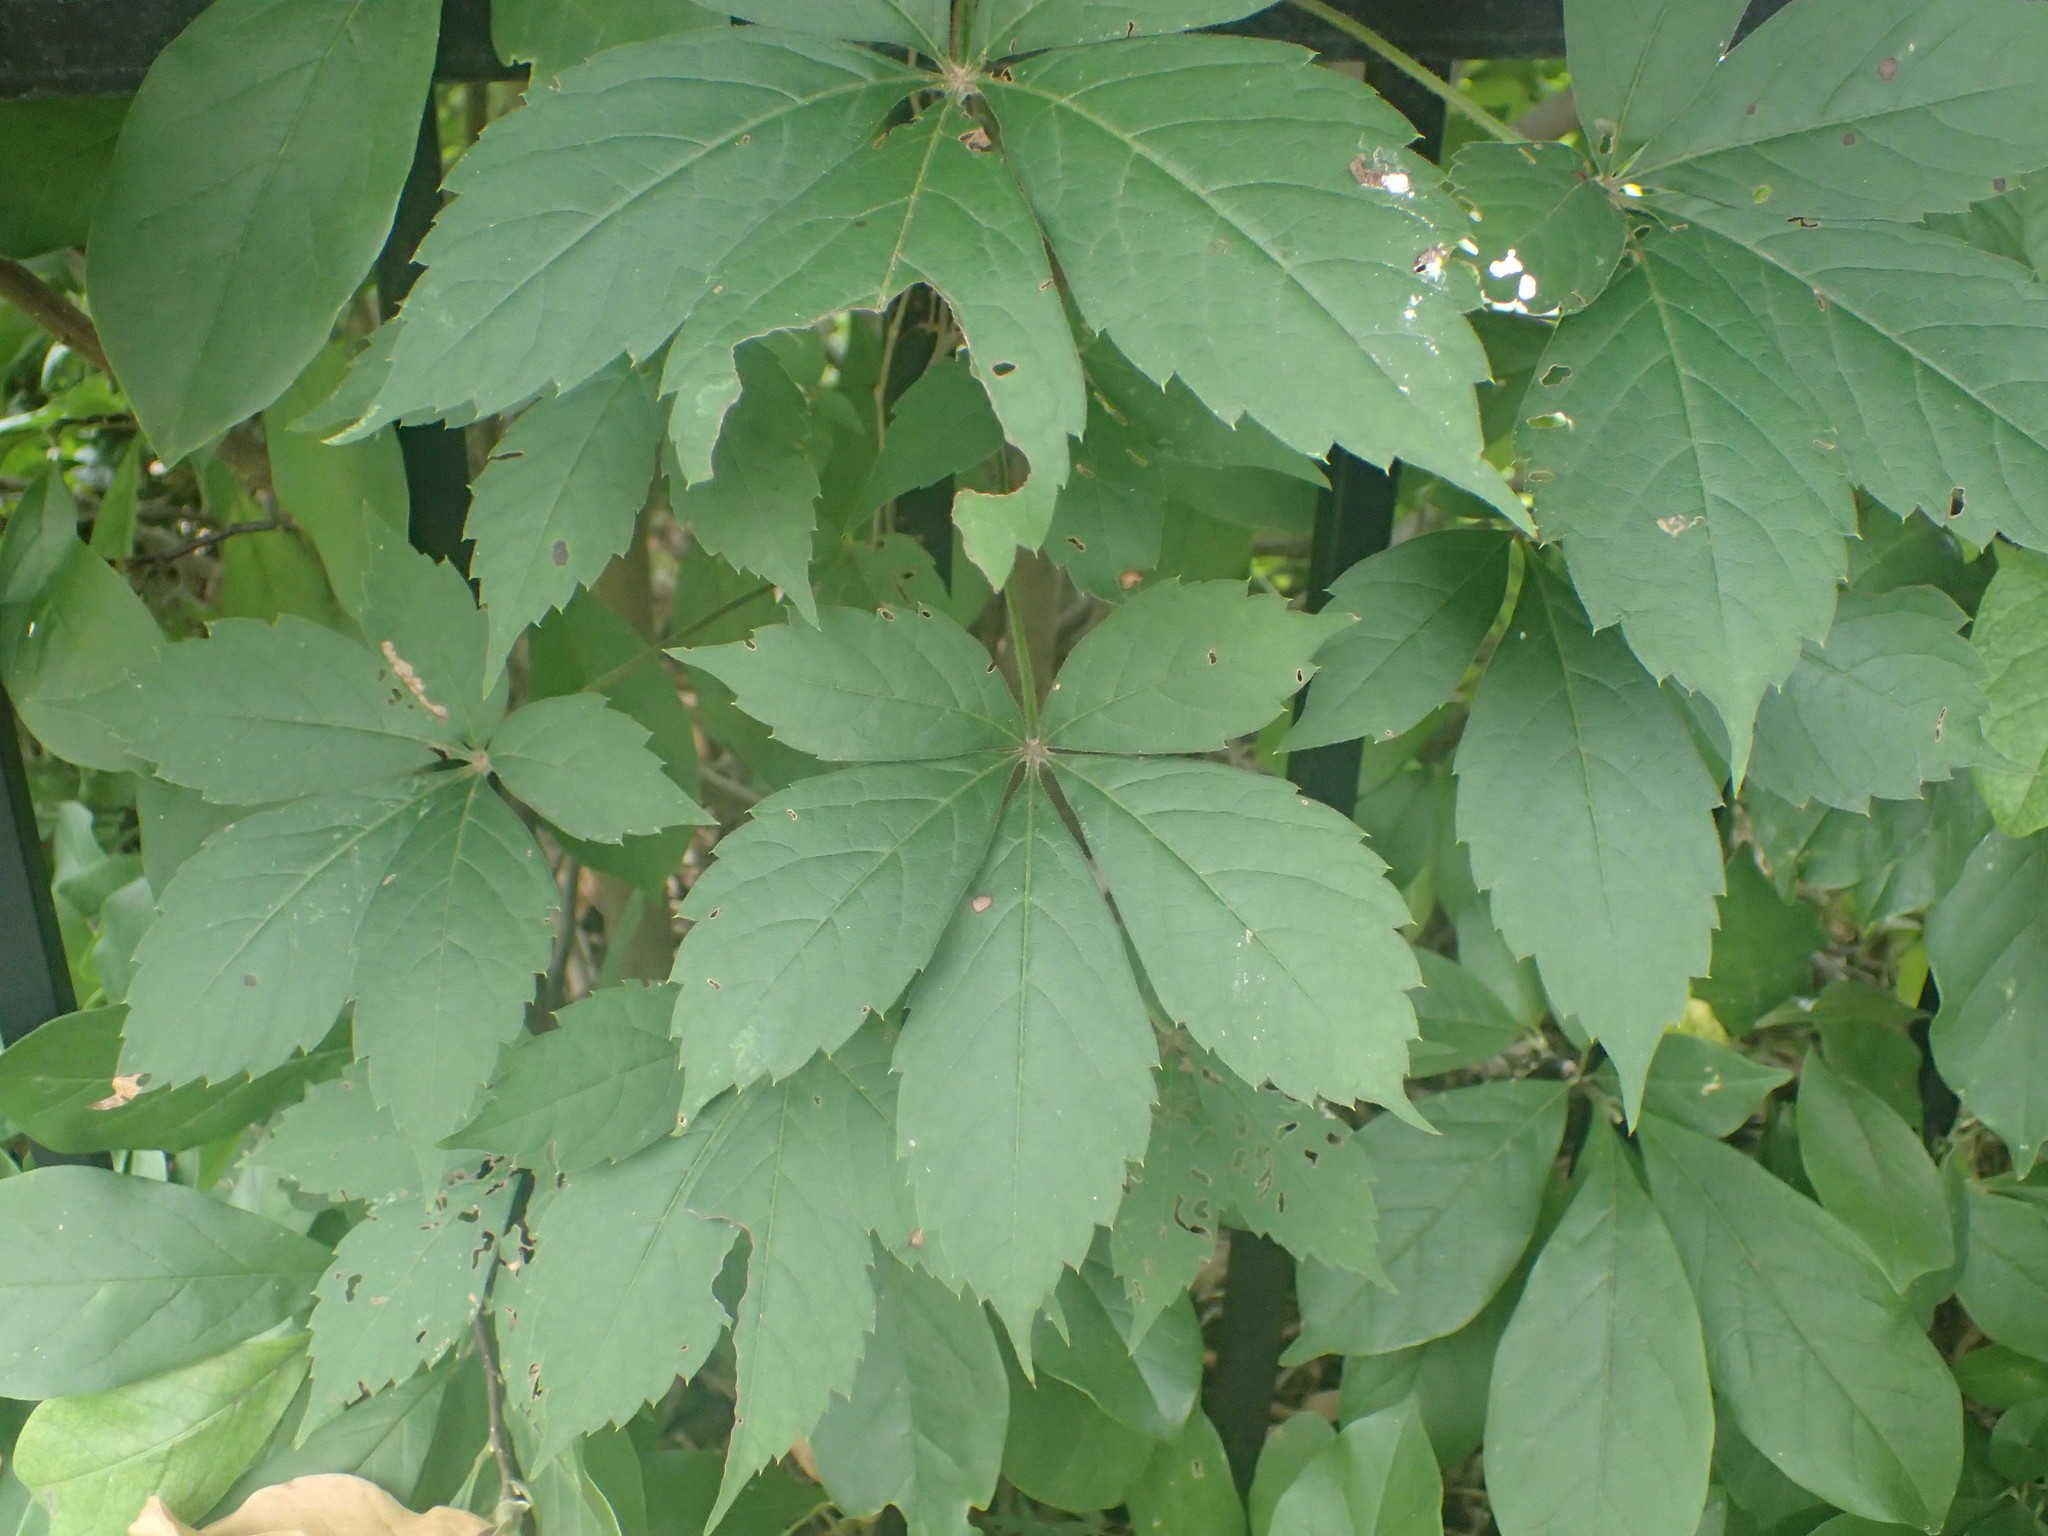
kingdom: Plantae
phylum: Tracheophyta
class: Magnoliopsida
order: Vitales
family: Vitaceae
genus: Parthenocissus
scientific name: Parthenocissus quinquefolia
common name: Virginia-creeper
